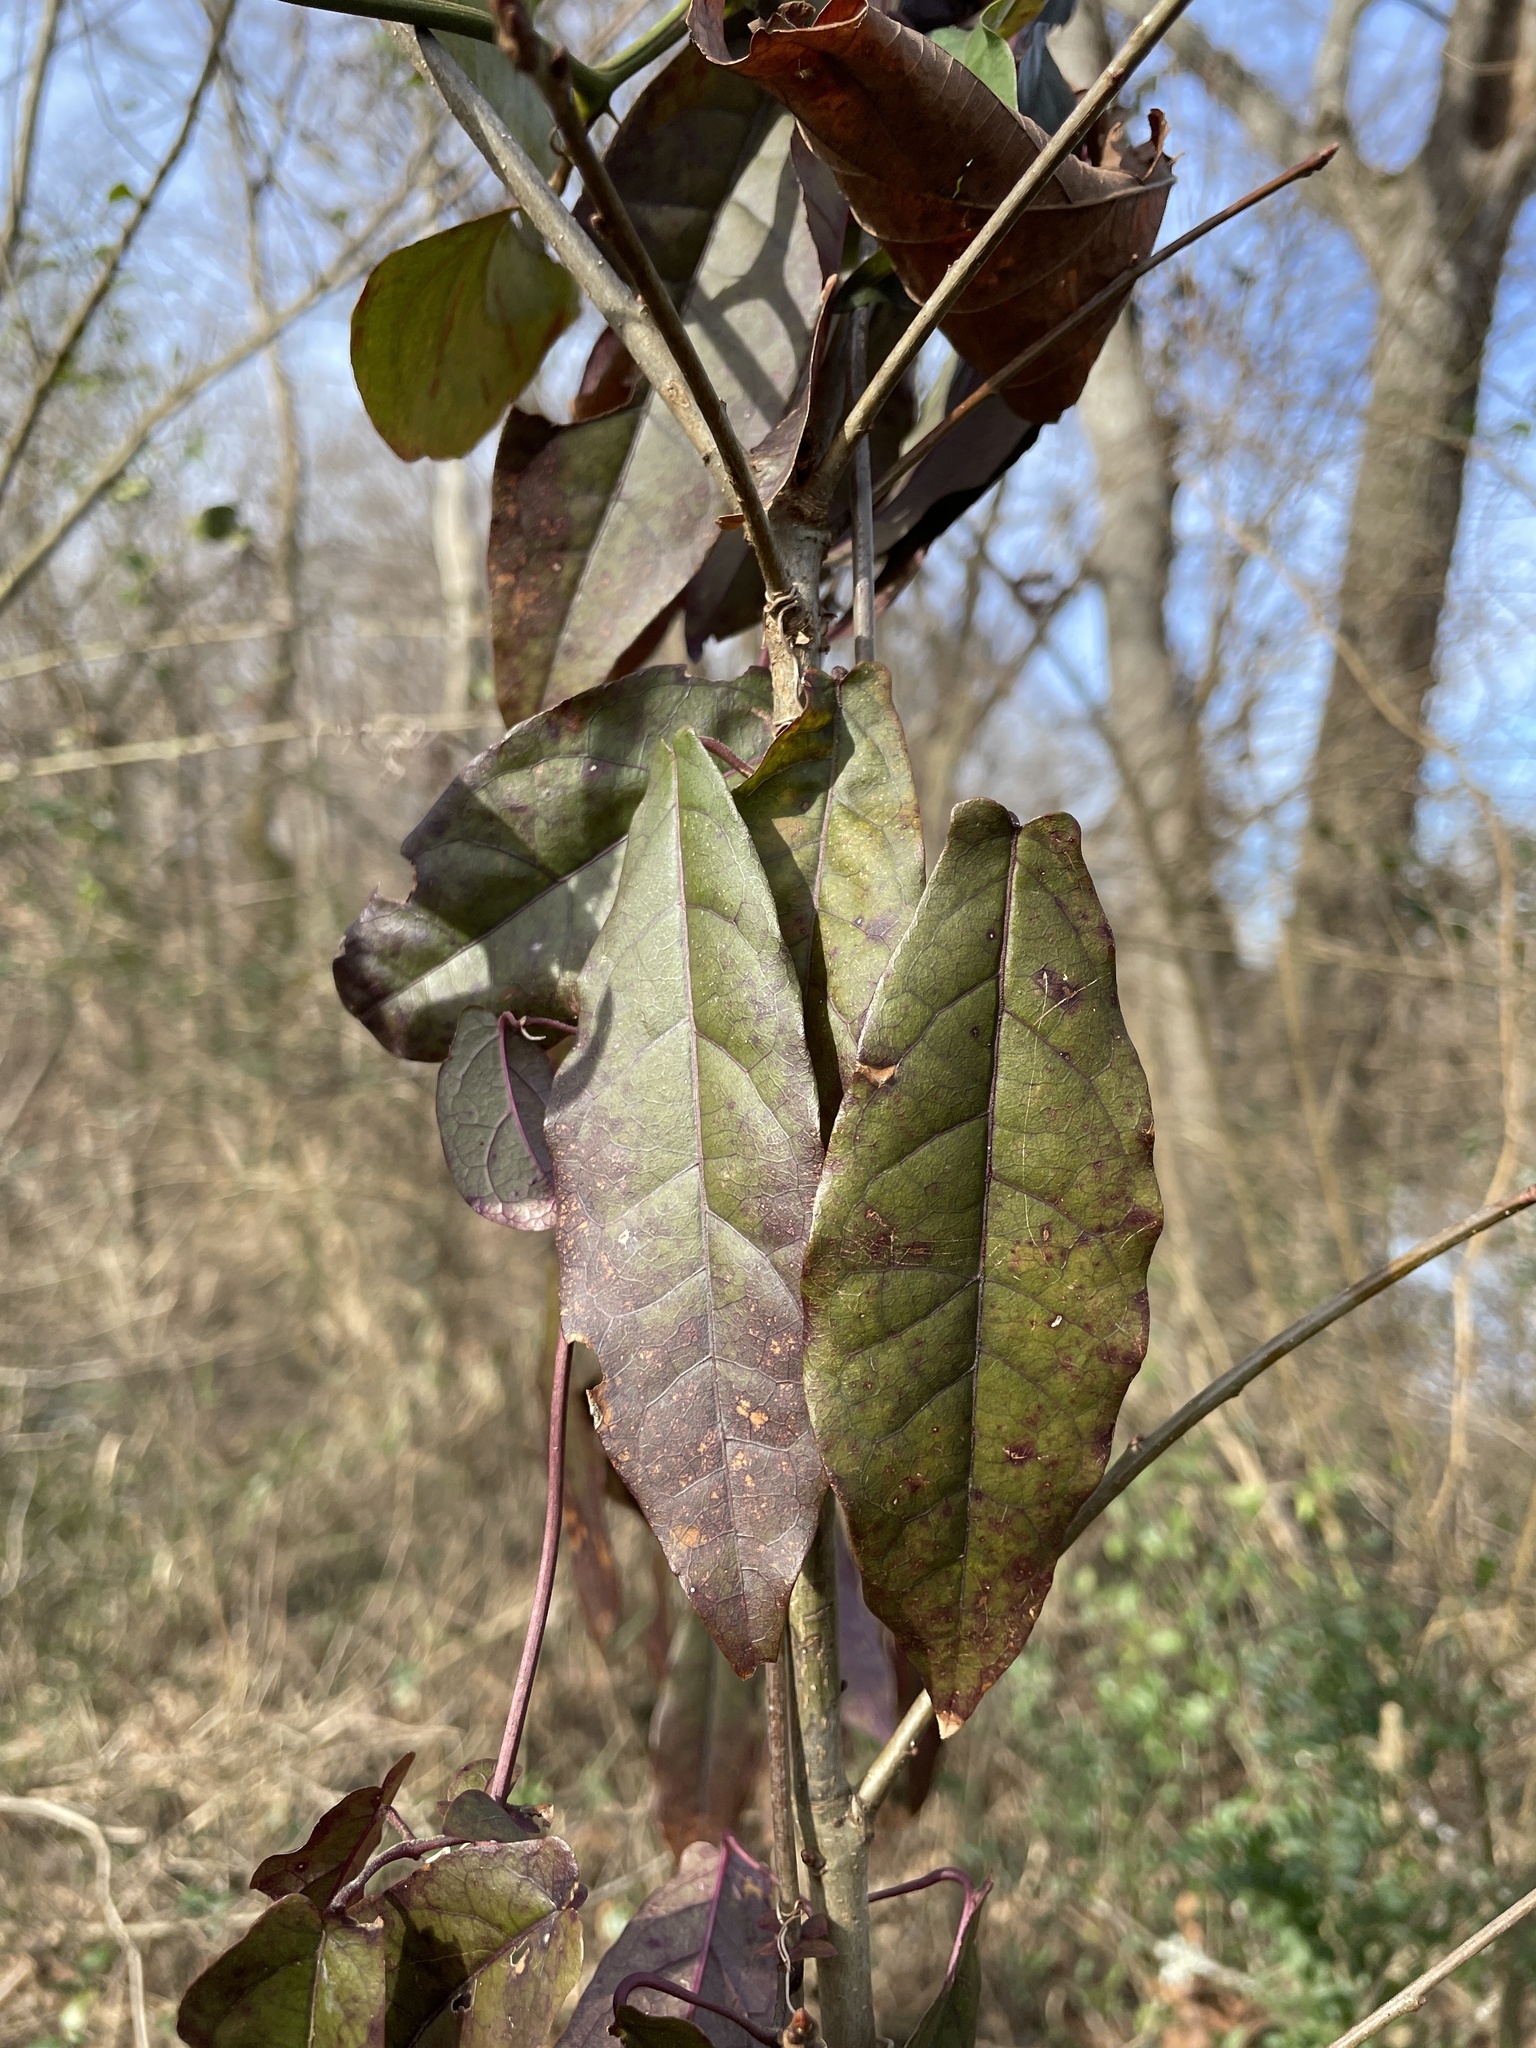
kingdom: Plantae
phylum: Tracheophyta
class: Magnoliopsida
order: Lamiales
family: Bignoniaceae
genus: Bignonia
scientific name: Bignonia capreolata
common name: Crossvine
